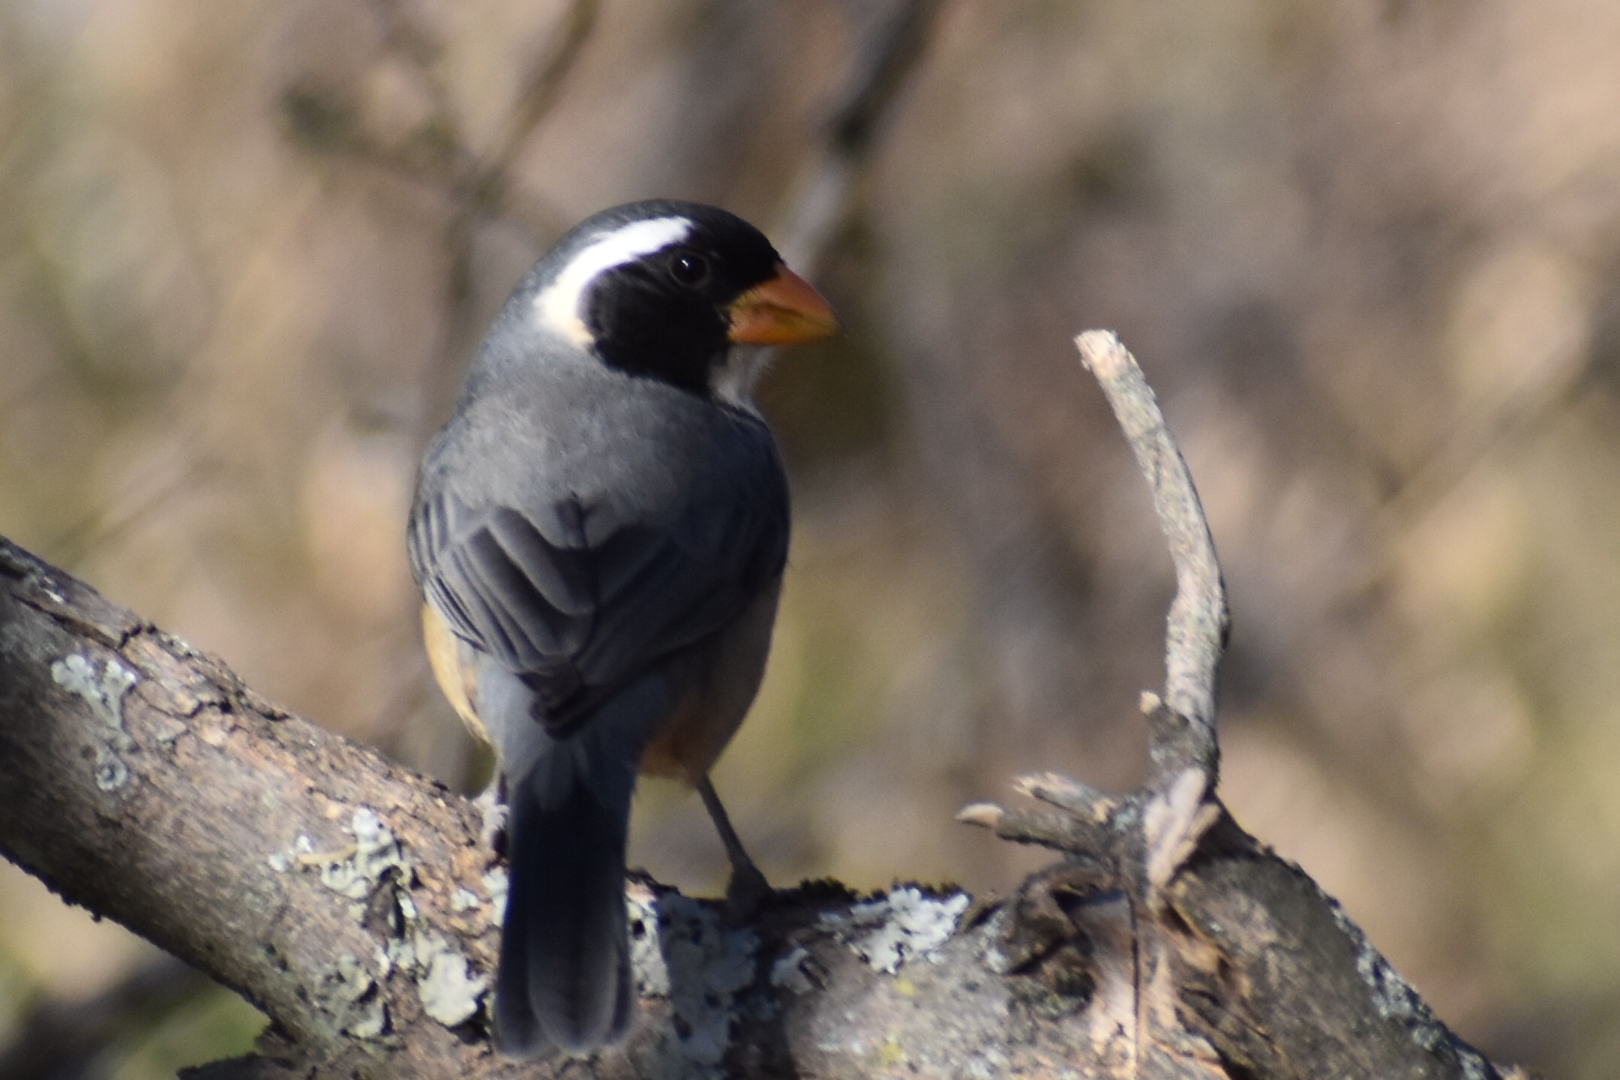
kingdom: Animalia
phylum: Chordata
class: Aves
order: Passeriformes
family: Thraupidae
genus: Saltator
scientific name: Saltator aurantiirostris
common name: Golden-billed saltator
